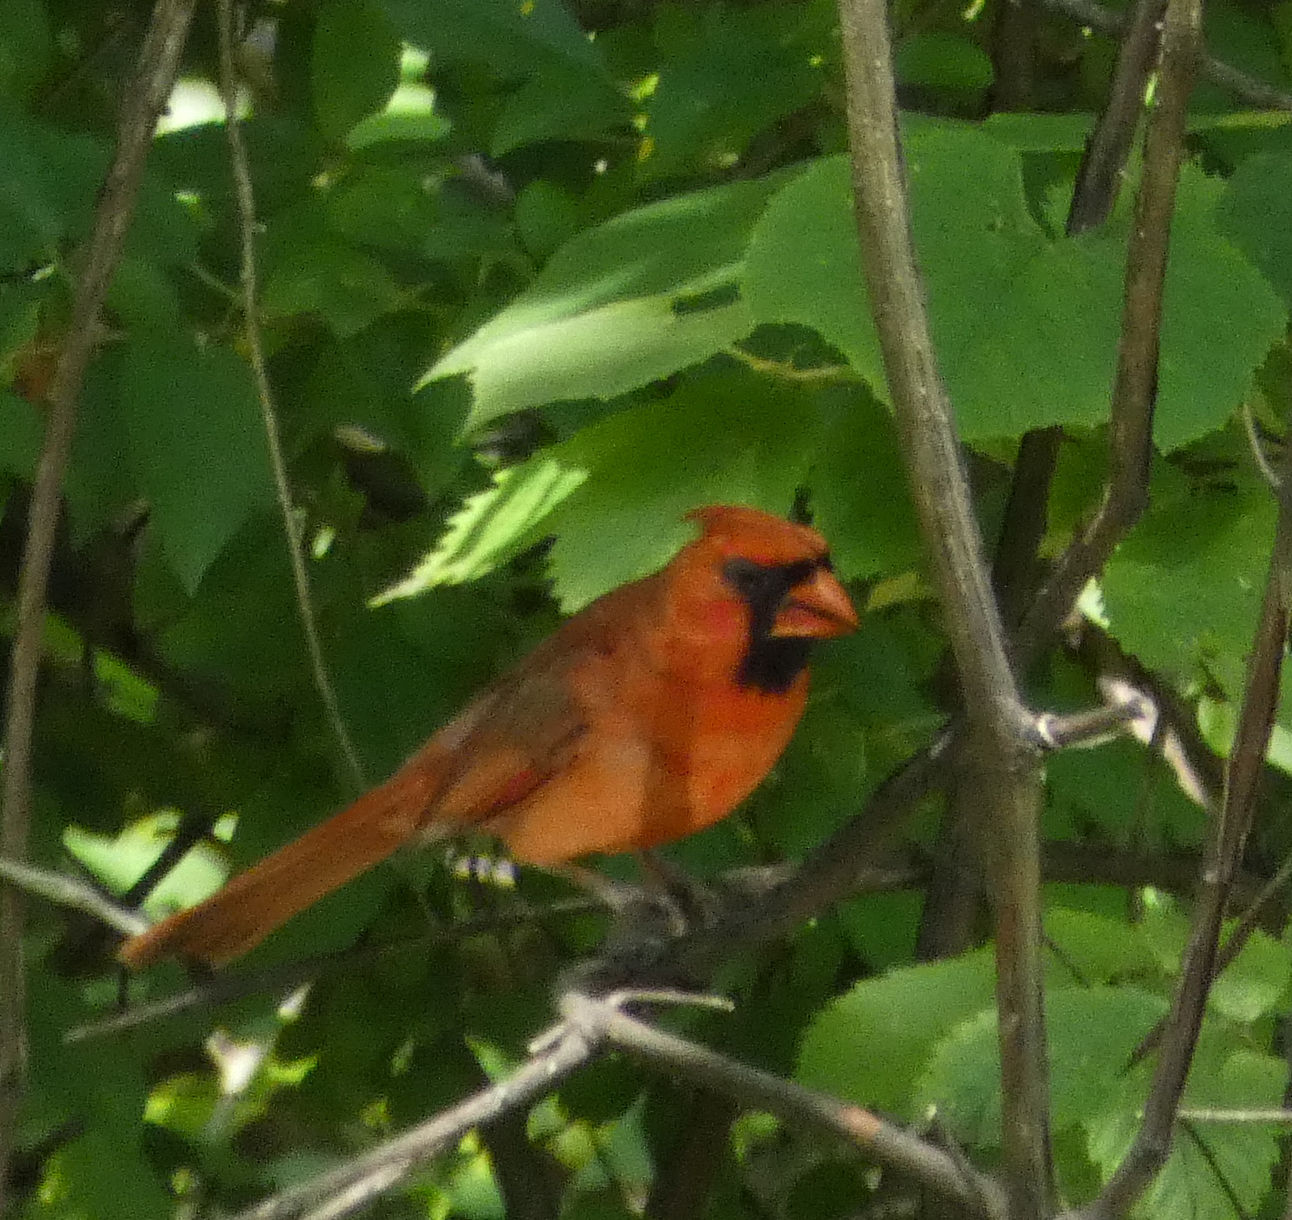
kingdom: Animalia
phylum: Chordata
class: Aves
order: Passeriformes
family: Cardinalidae
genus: Cardinalis
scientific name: Cardinalis cardinalis
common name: Northern cardinal
